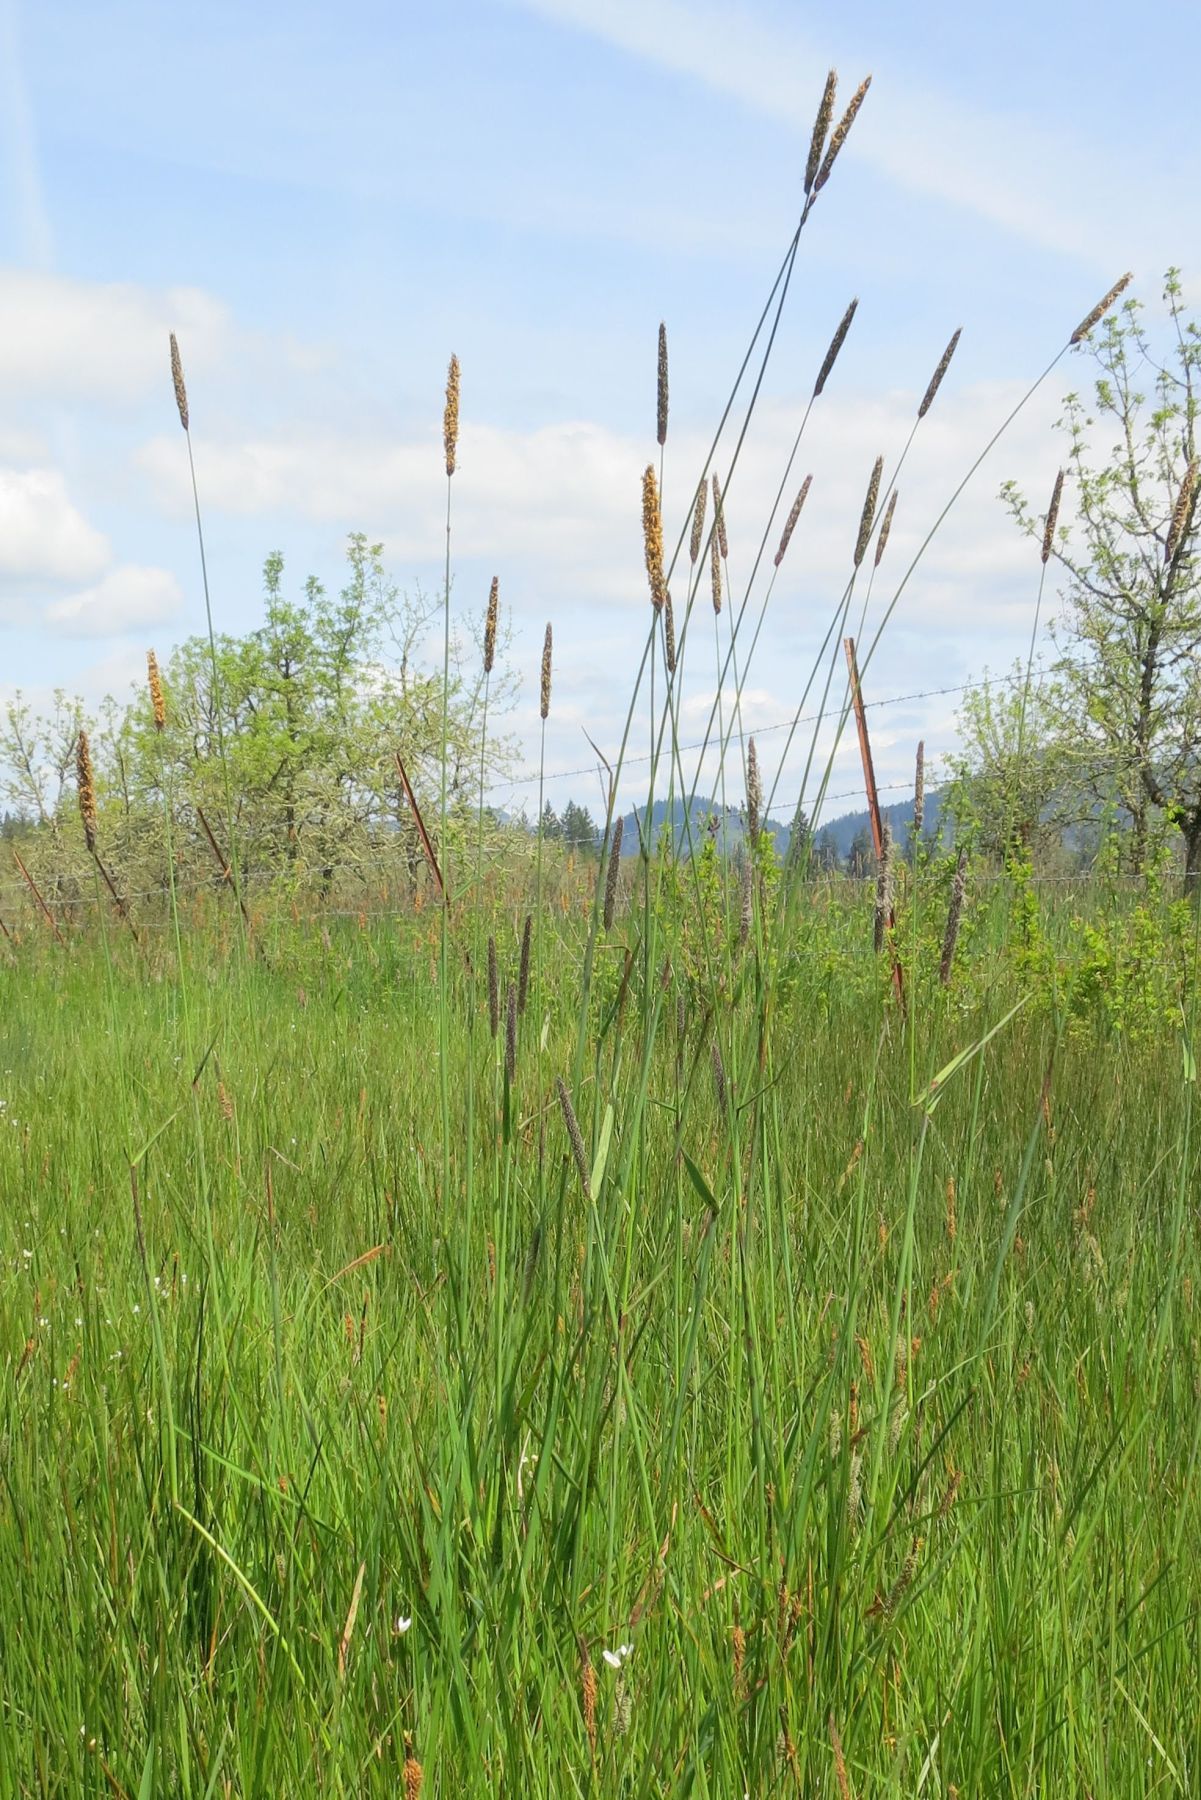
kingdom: Plantae
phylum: Tracheophyta
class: Liliopsida
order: Poales
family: Poaceae
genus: Alopecurus
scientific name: Alopecurus pratensis
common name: Meadow foxtail
